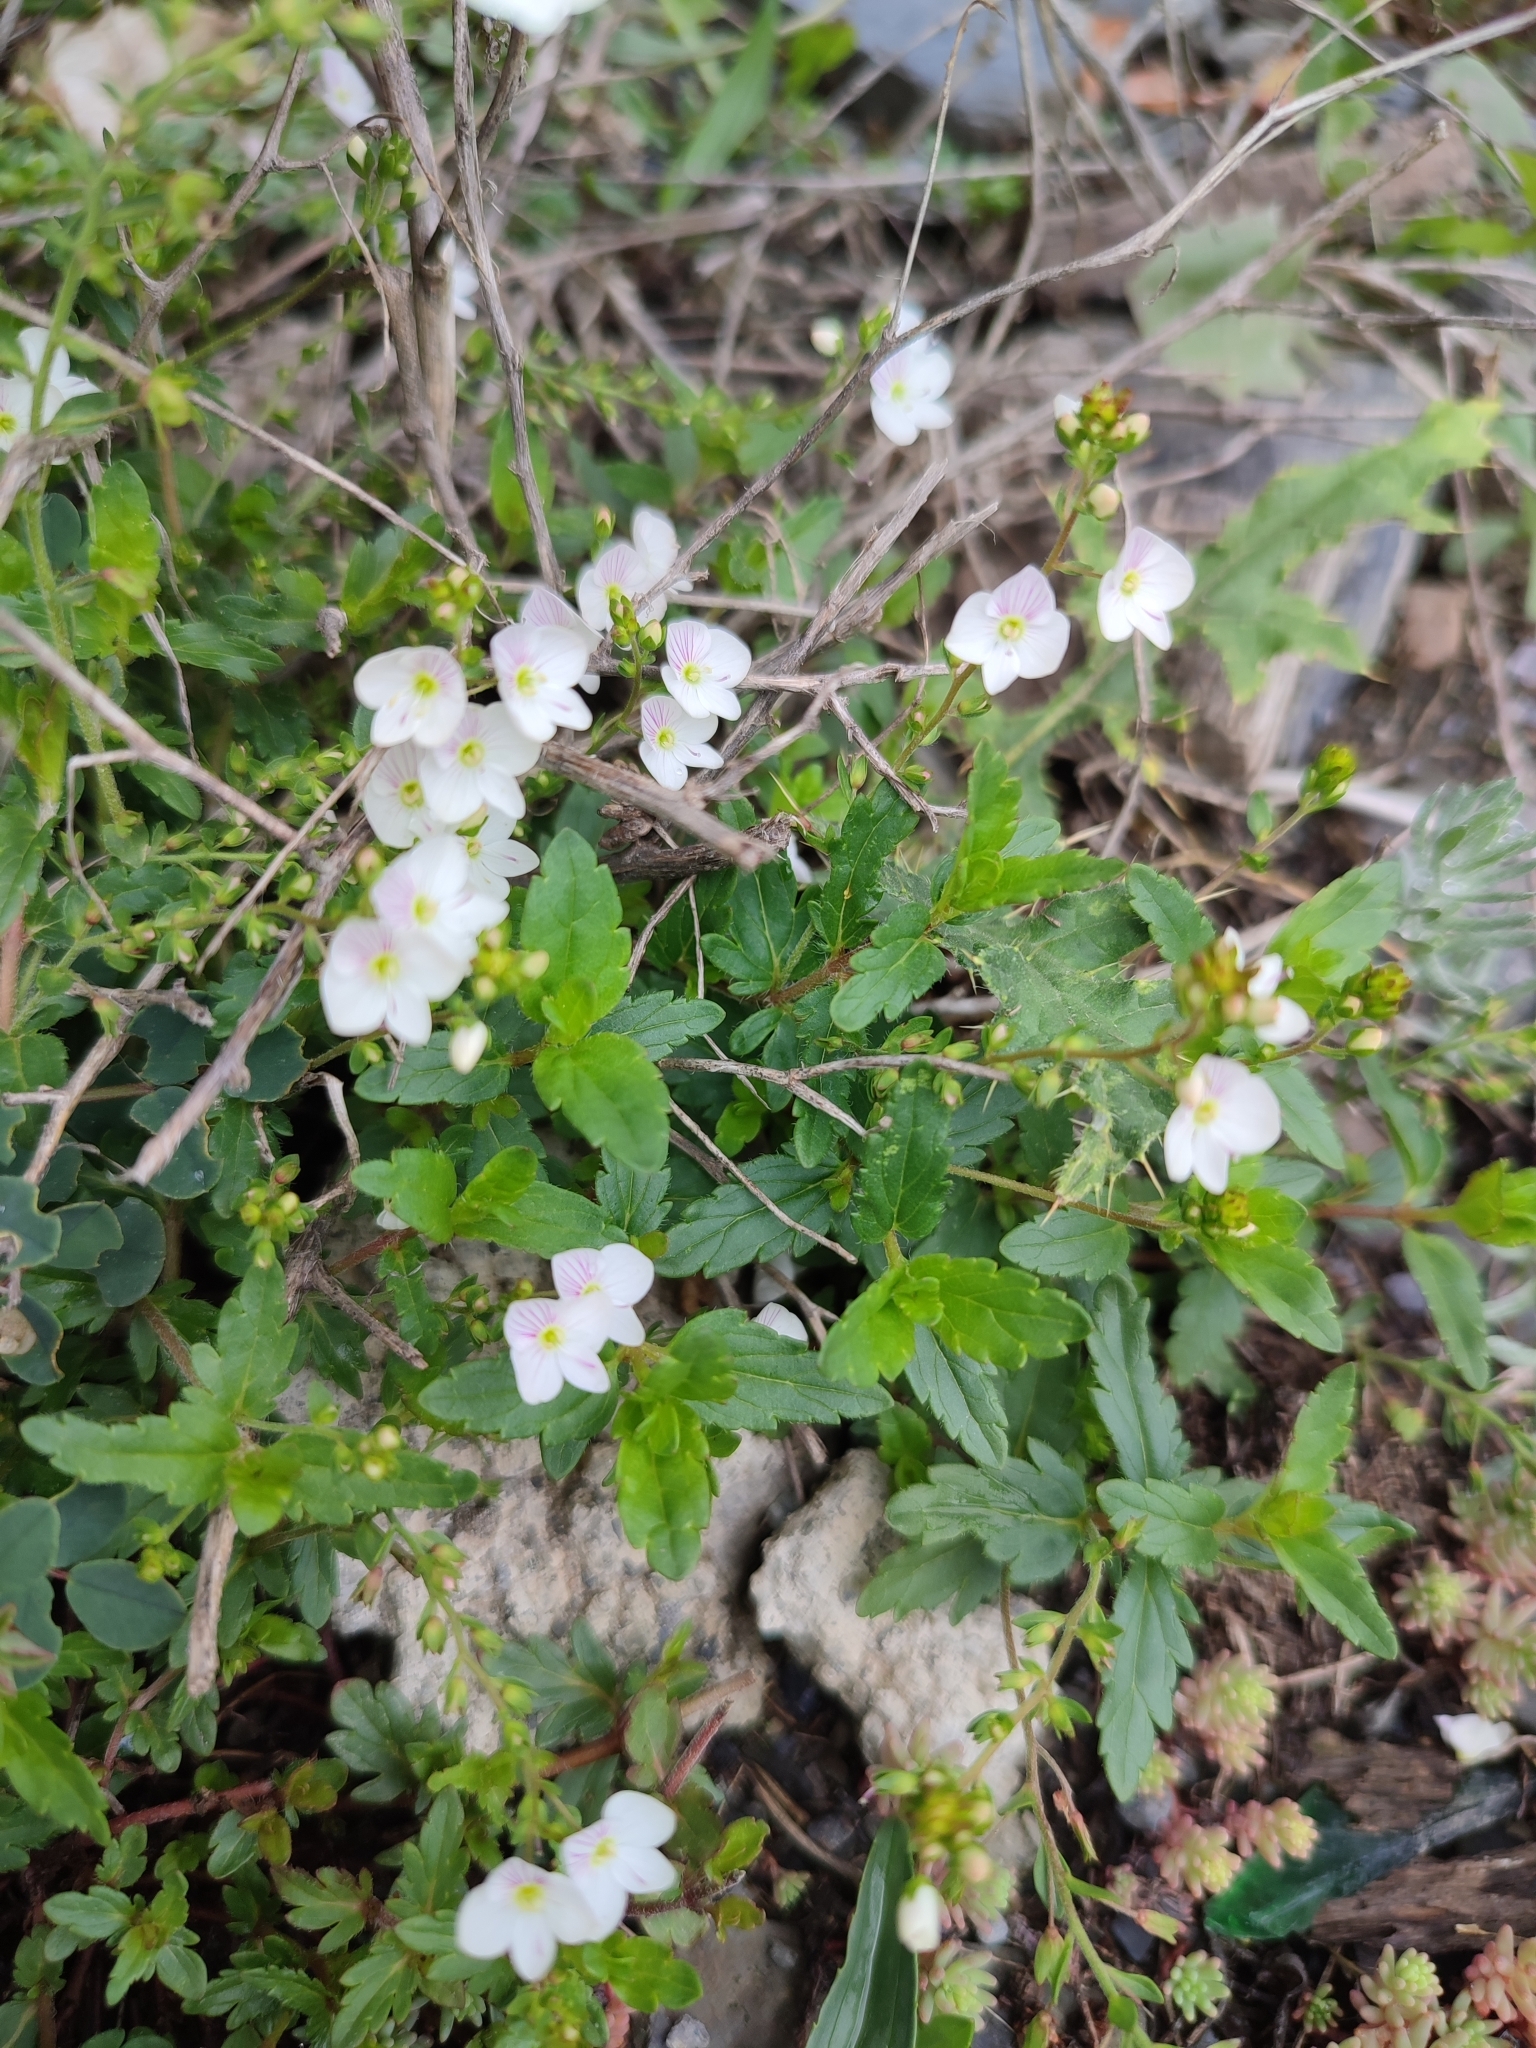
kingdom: Plantae
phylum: Tracheophyta
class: Magnoliopsida
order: Lamiales
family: Plantaginaceae
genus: Veronica
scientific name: Veronica peduncularis
